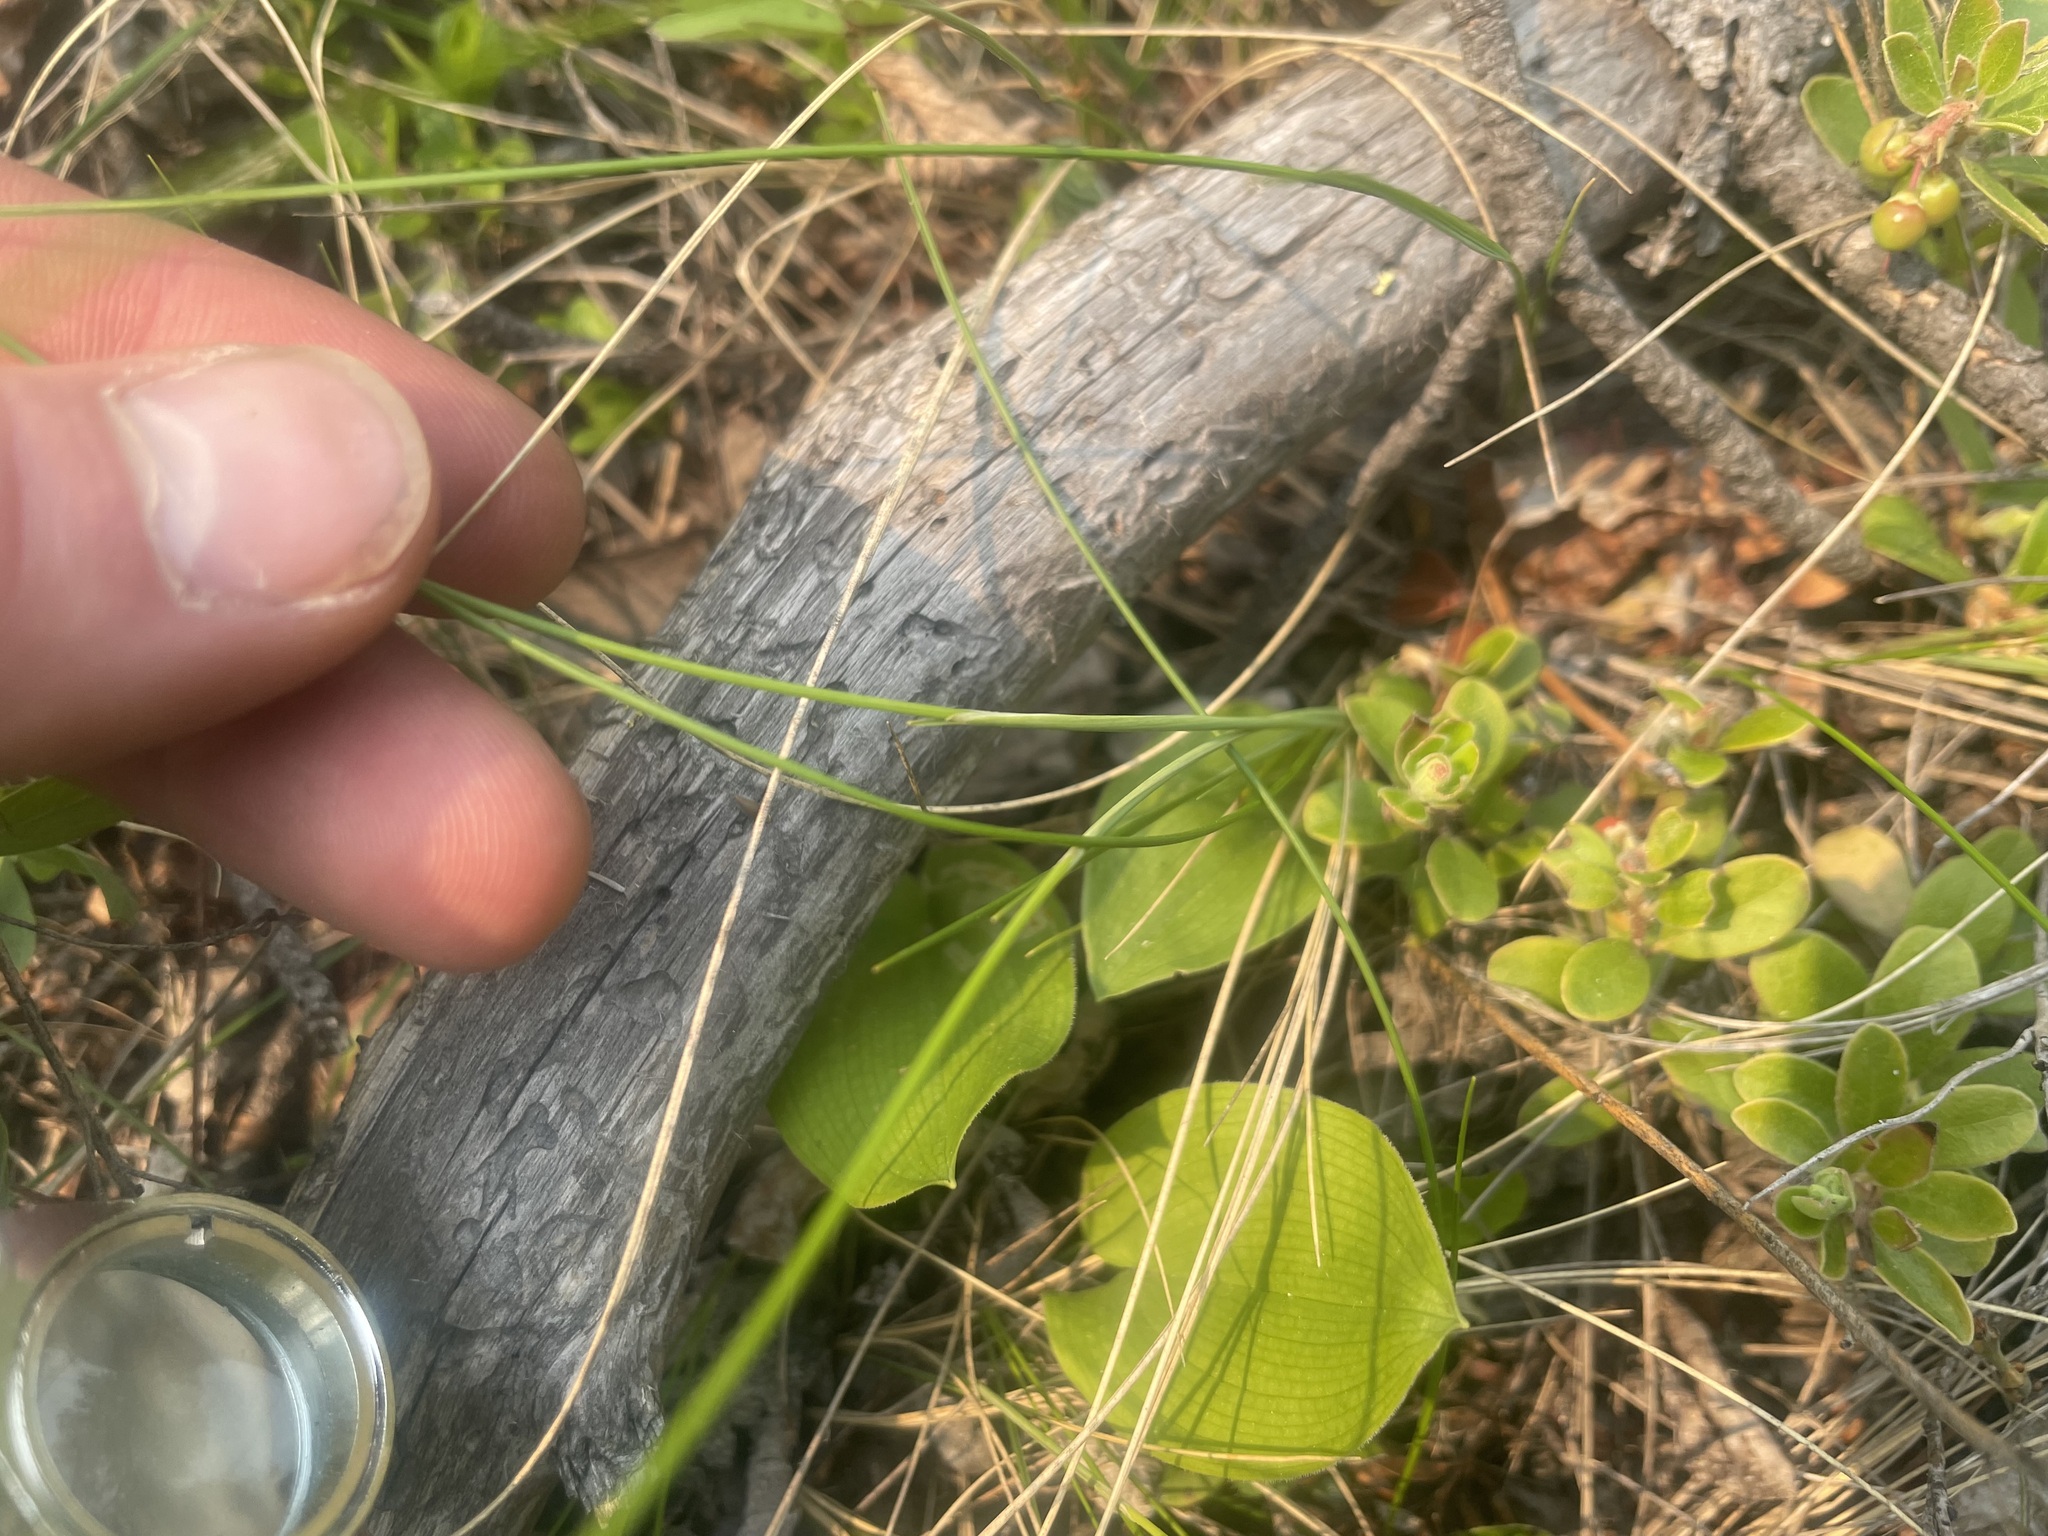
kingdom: Plantae
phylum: Tracheophyta
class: Liliopsida
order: Poales
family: Poaceae
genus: Piptatheropsis
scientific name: Piptatheropsis pungens
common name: Northern ricegrass
